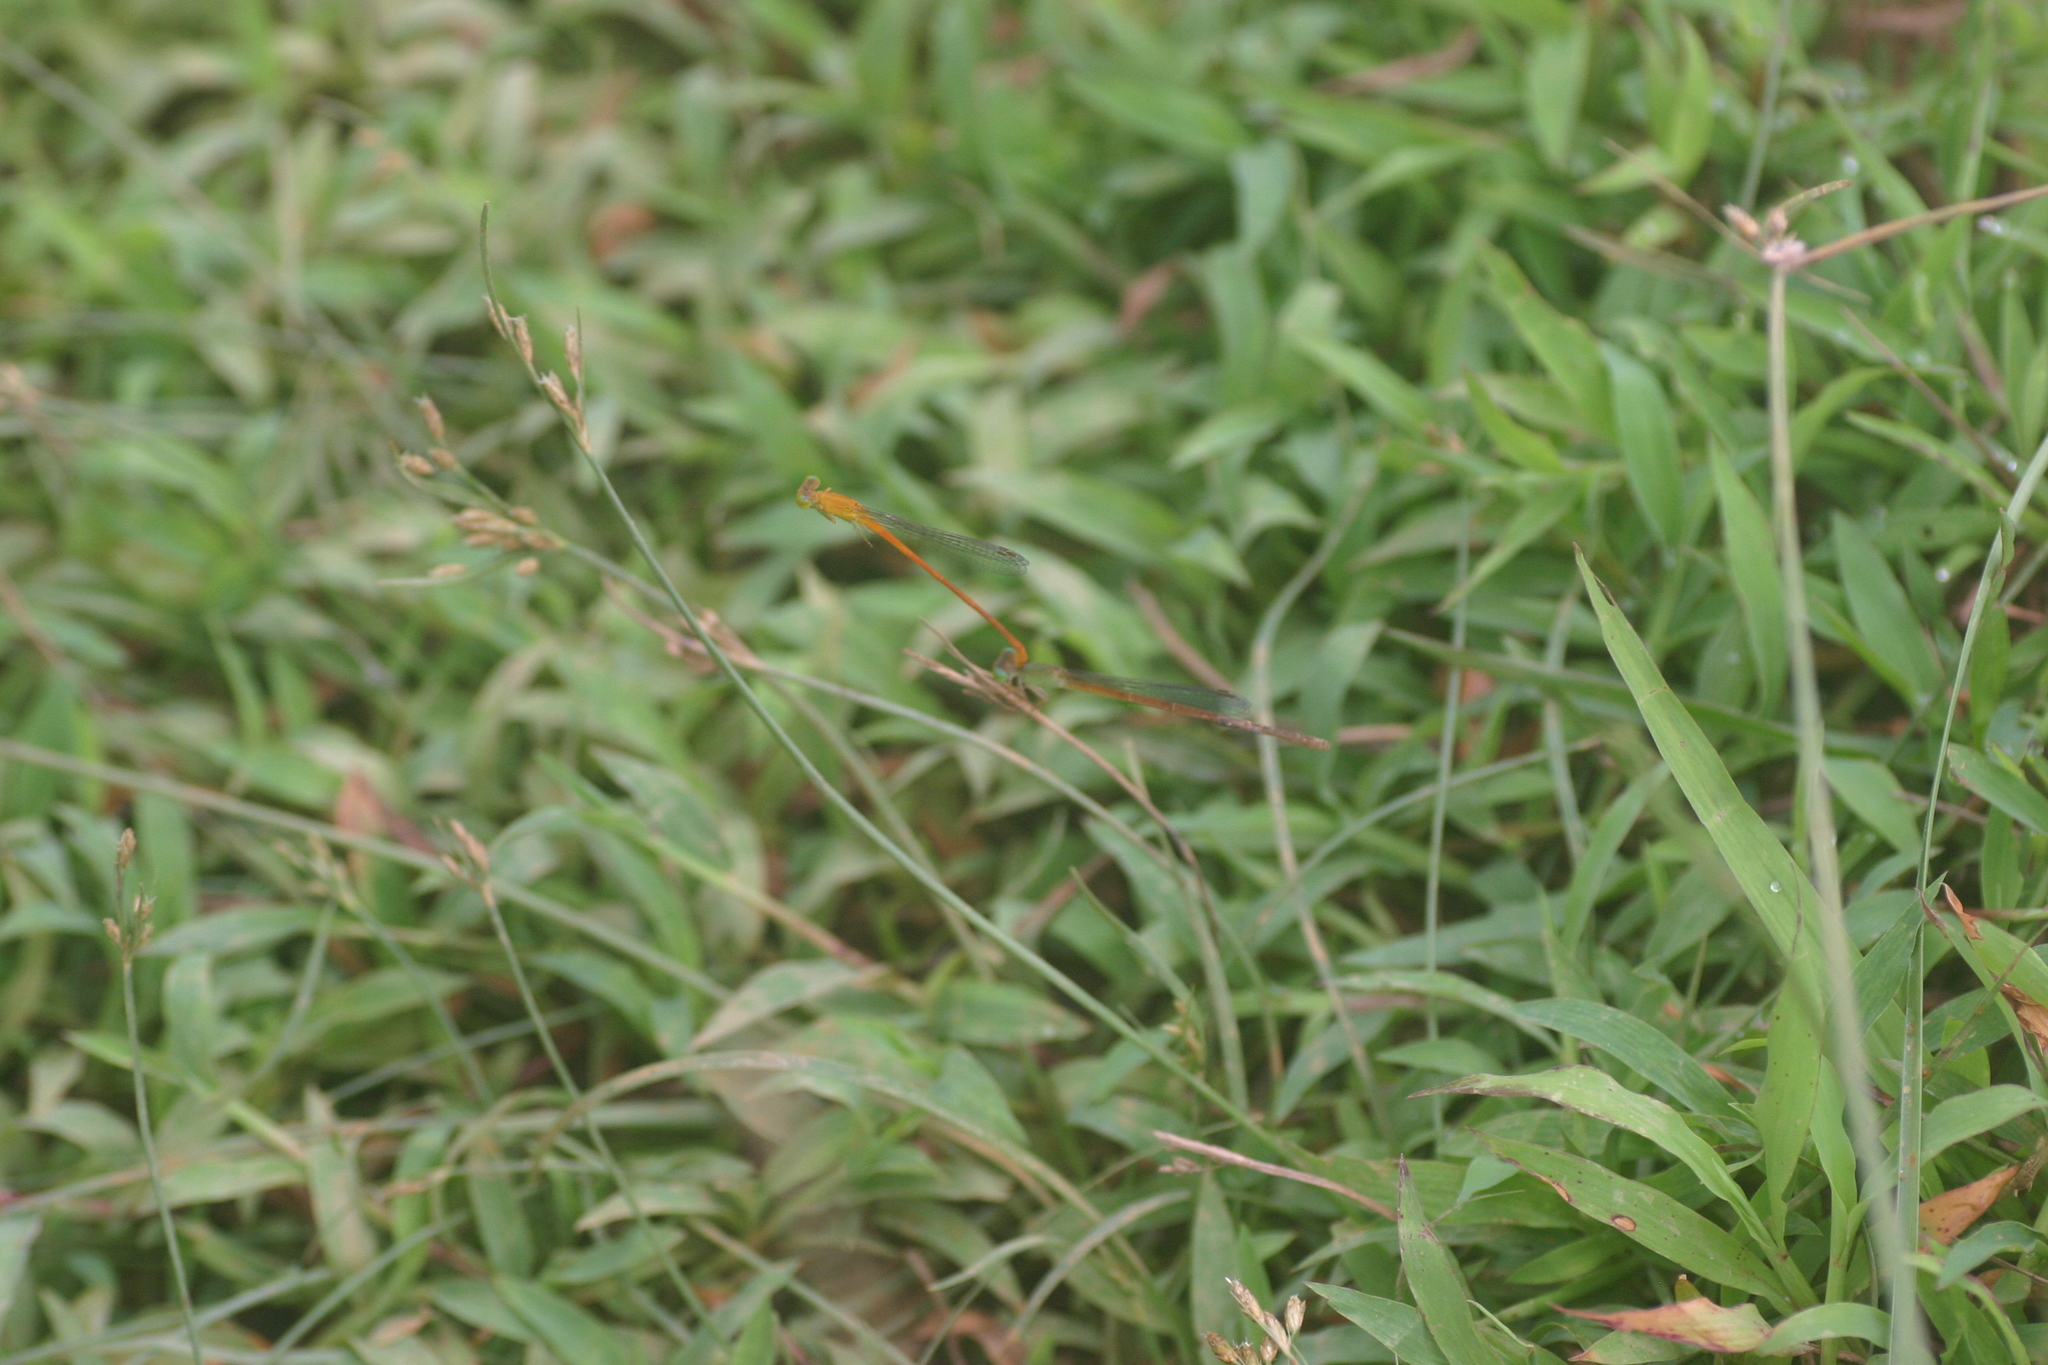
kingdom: Animalia
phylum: Arthropoda
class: Insecta
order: Odonata
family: Coenagrionidae
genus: Ceriagrion
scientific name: Ceriagrion rubiae
